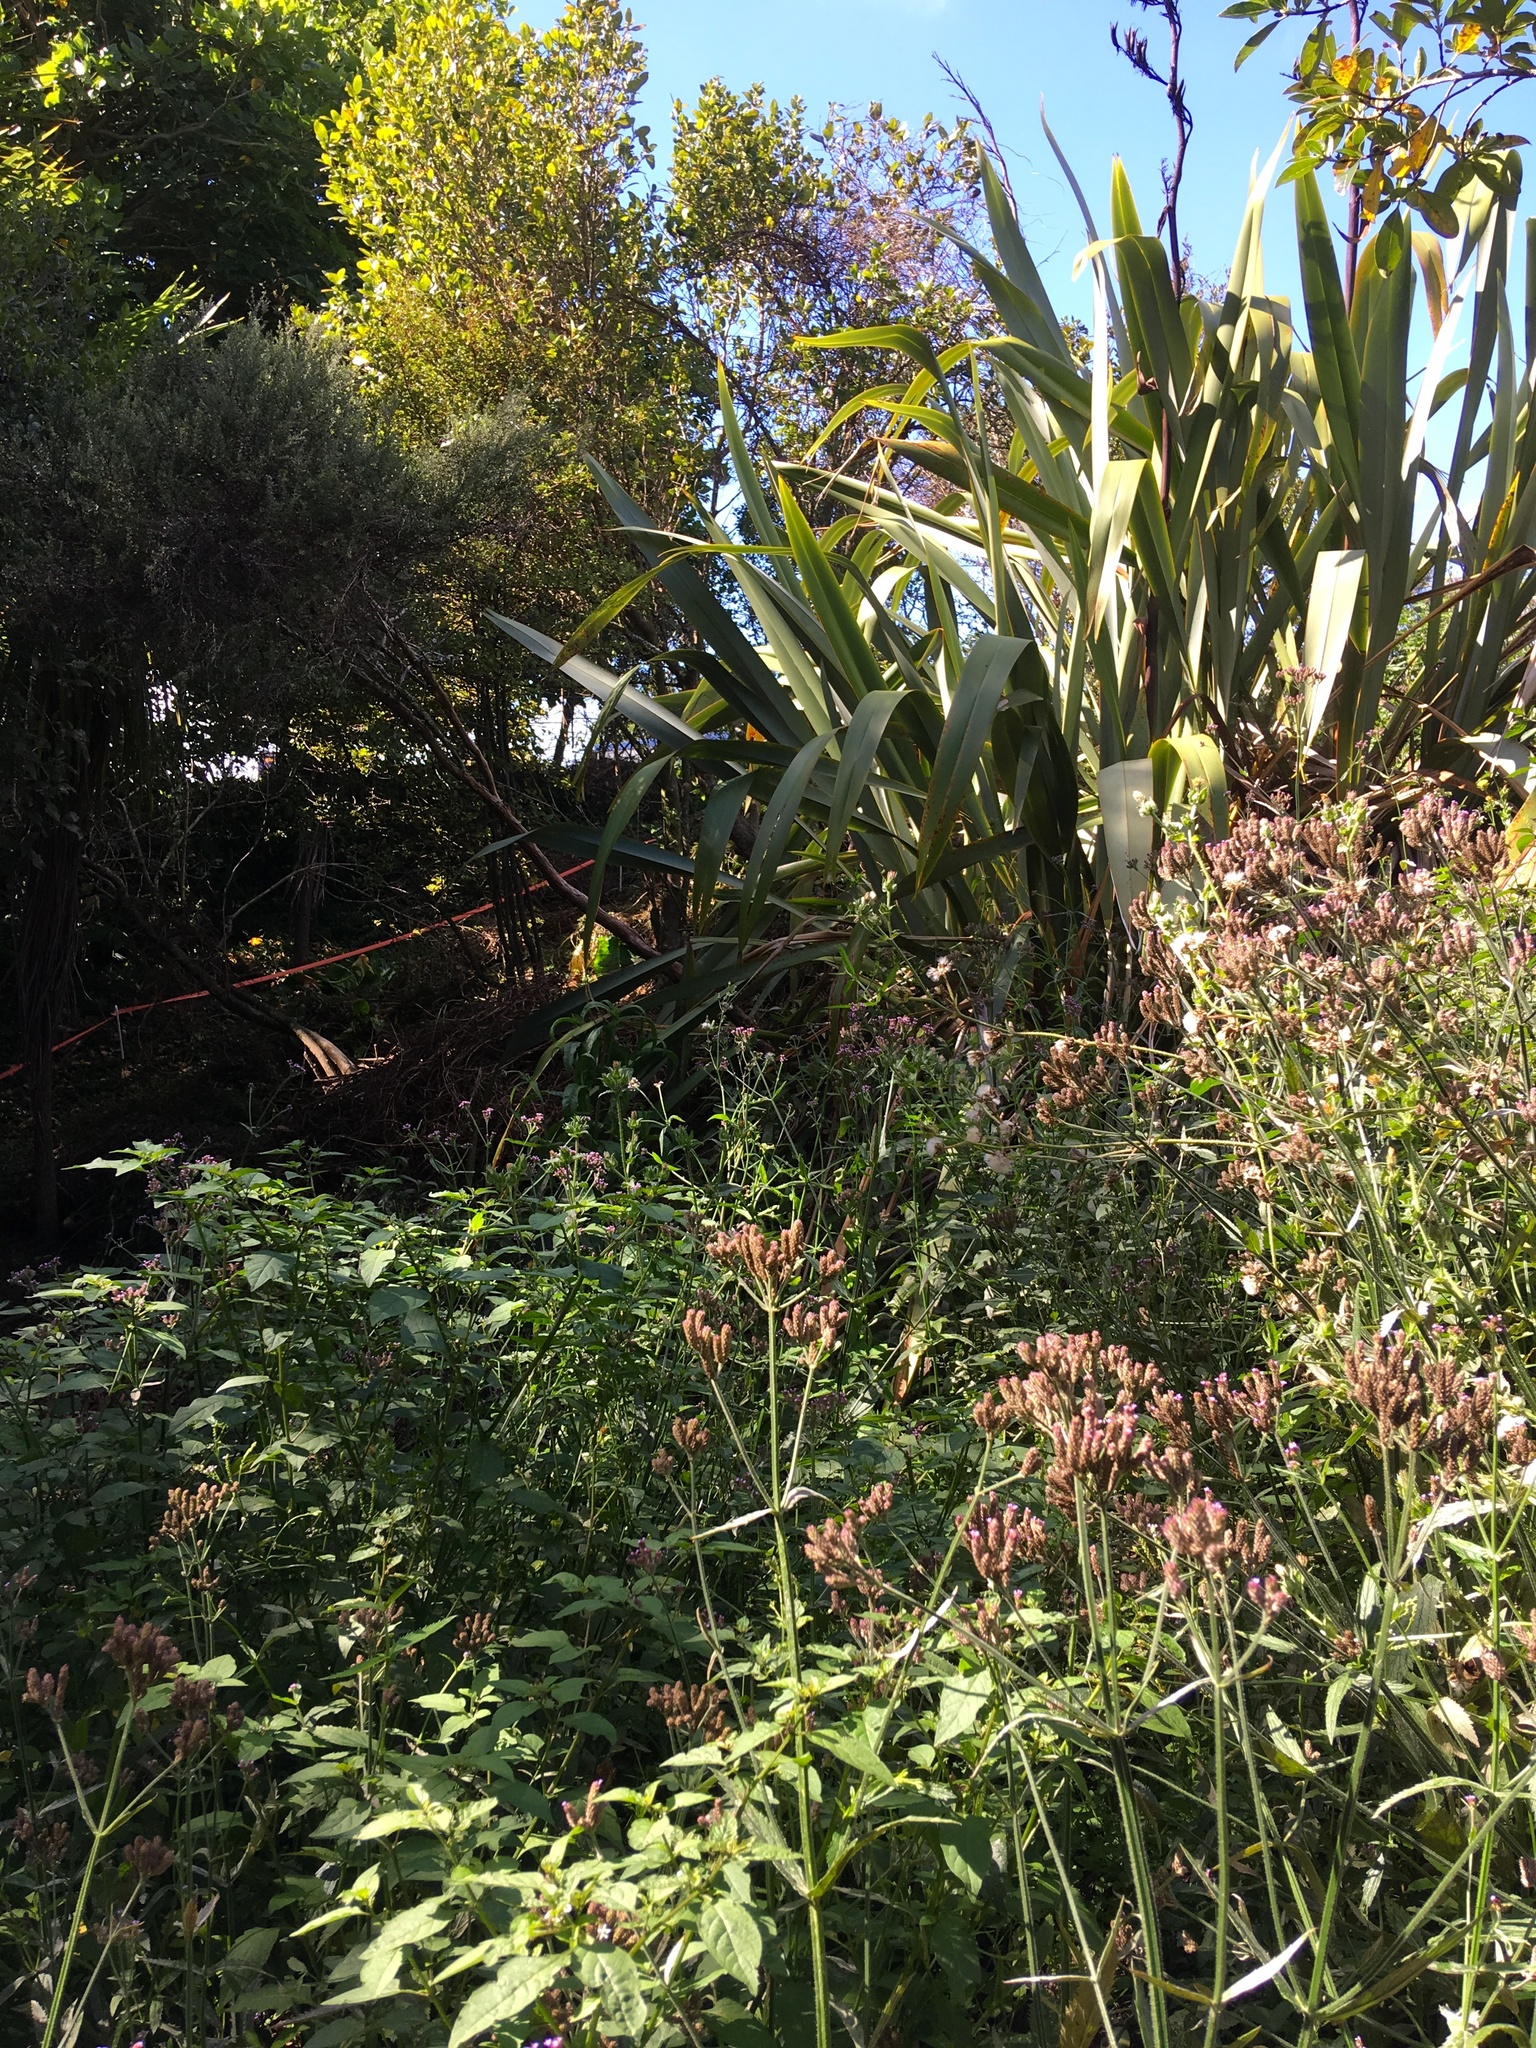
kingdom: Plantae
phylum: Tracheophyta
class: Magnoliopsida
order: Lamiales
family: Verbenaceae
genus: Verbena
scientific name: Verbena incompta
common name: Purpletop vervain
